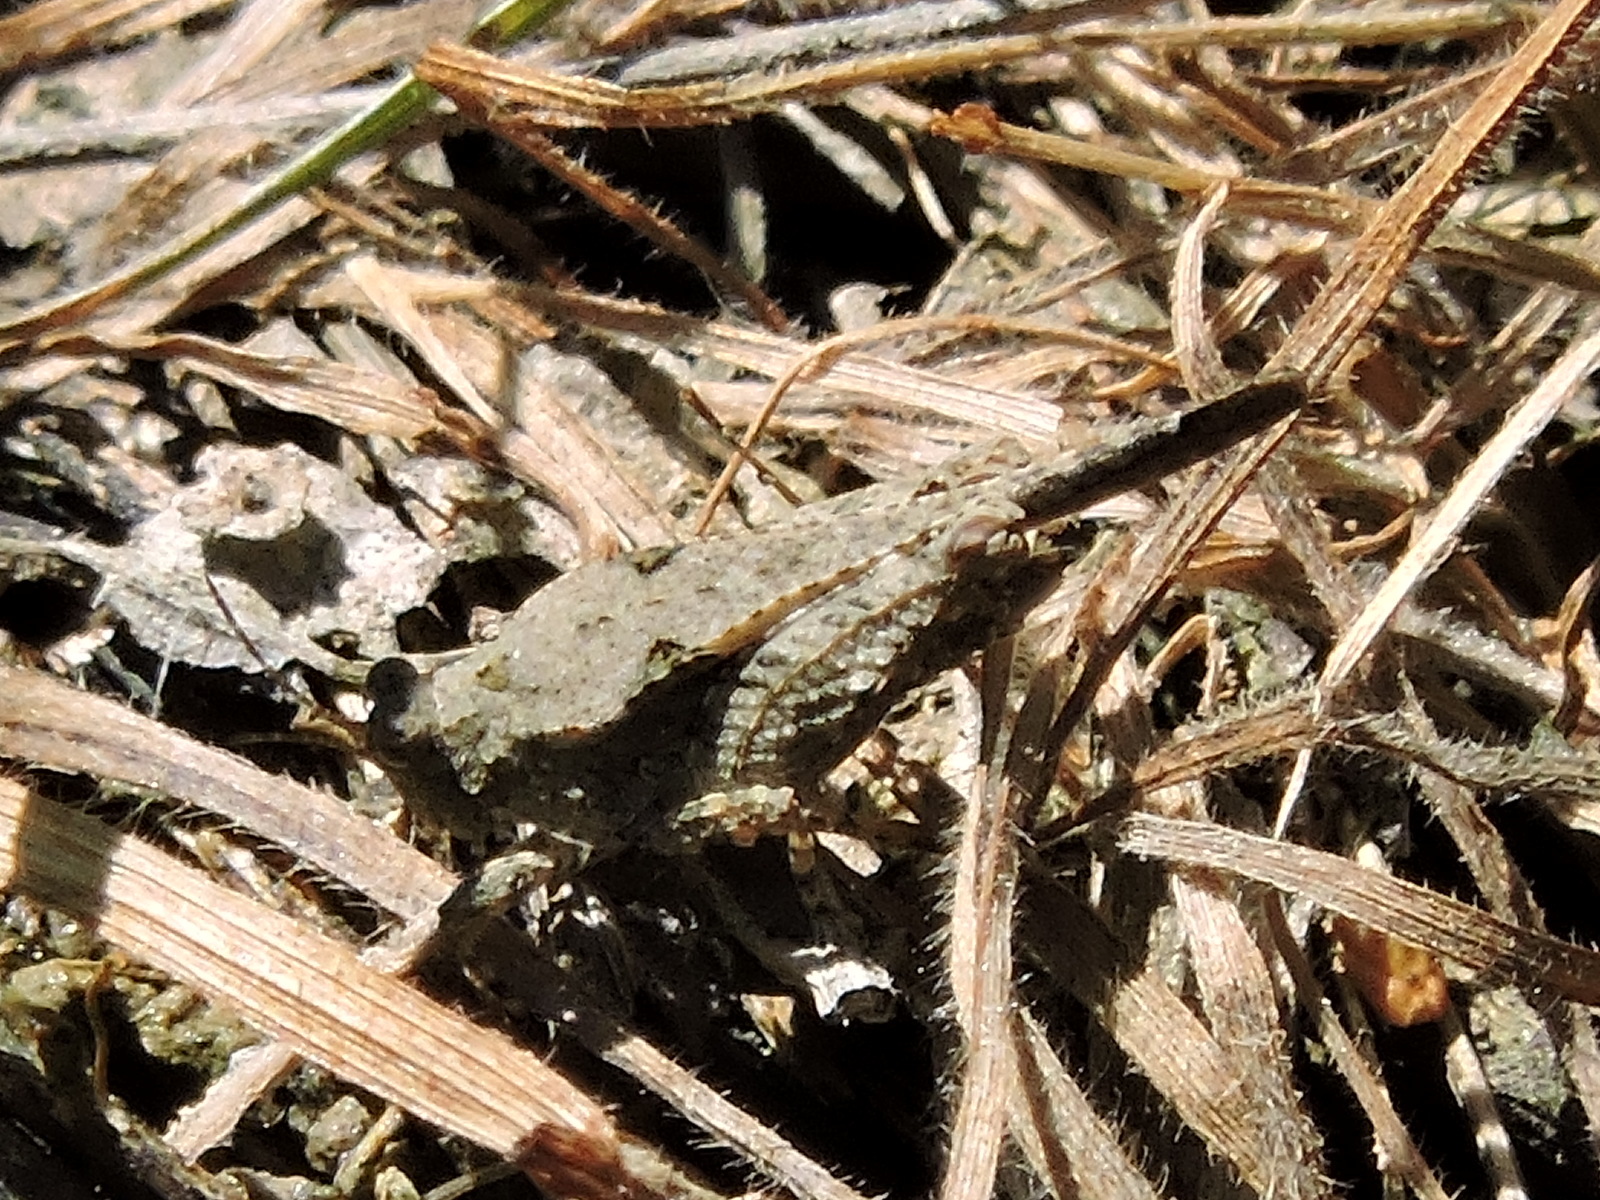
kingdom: Animalia
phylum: Arthropoda
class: Insecta
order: Orthoptera
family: Tetrigidae
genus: Paratettix
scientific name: Paratettix mexicanus
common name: Mexican pygmy grasshopper
